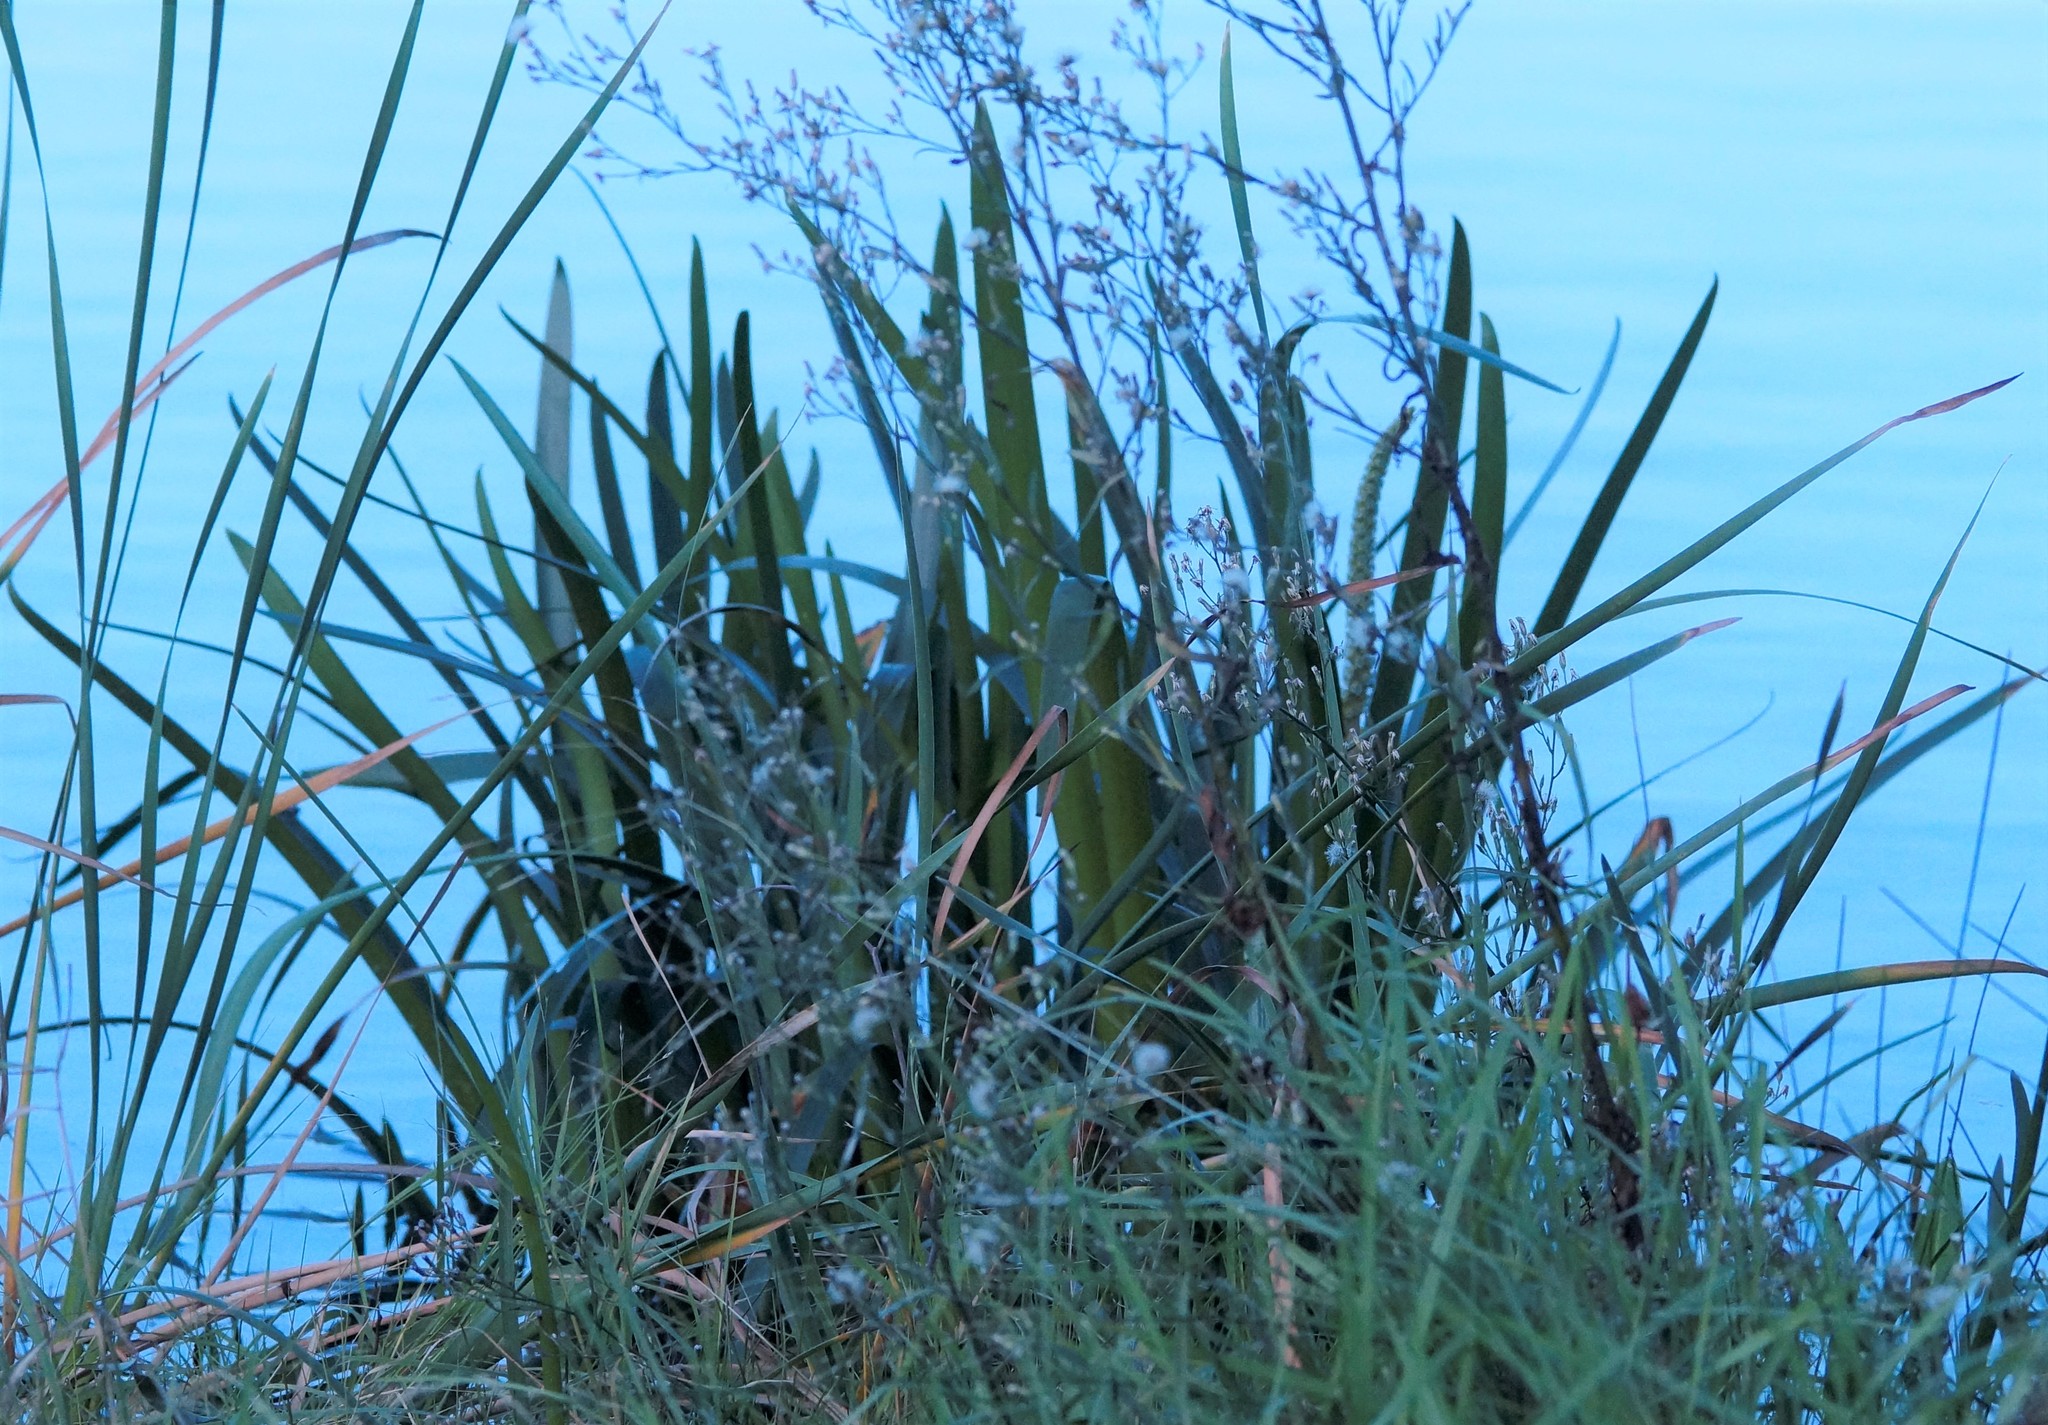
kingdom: Plantae
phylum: Tracheophyta
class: Liliopsida
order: Alismatales
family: Juncaginaceae
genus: Cycnogeton
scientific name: Cycnogeton procerum
